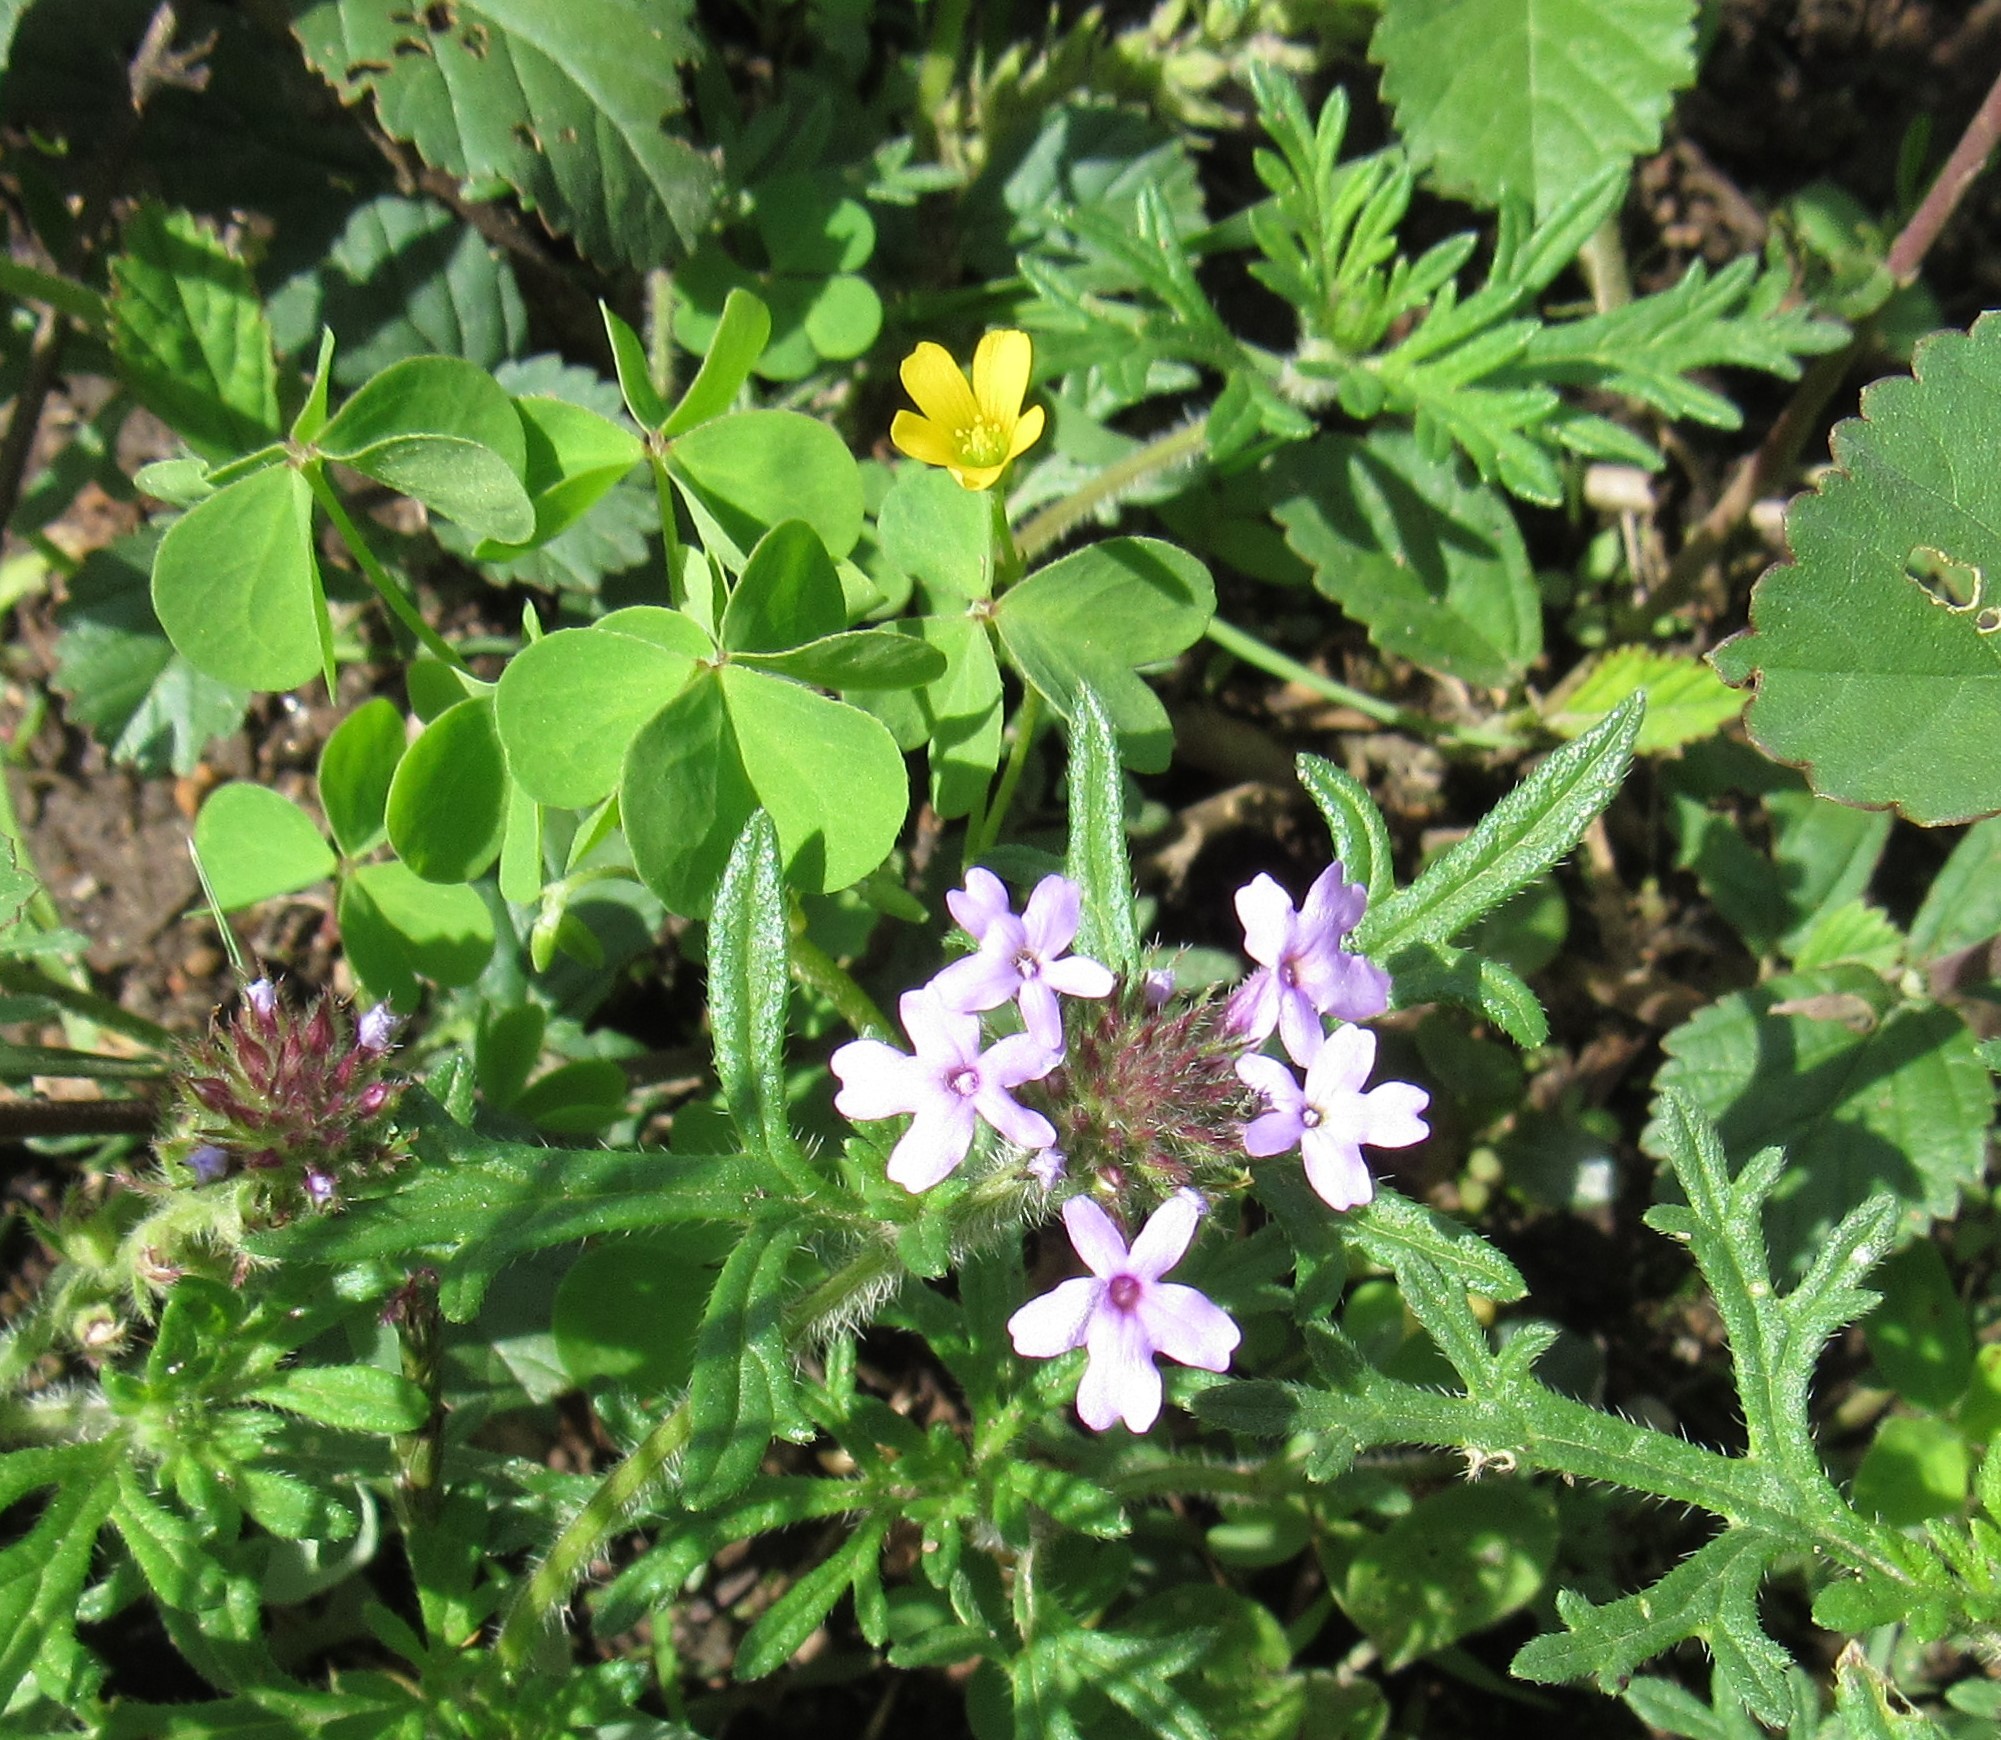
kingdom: Plantae
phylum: Tracheophyta
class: Magnoliopsida
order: Lamiales
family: Verbenaceae
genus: Verbena
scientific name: Verbena bipinnatifida
